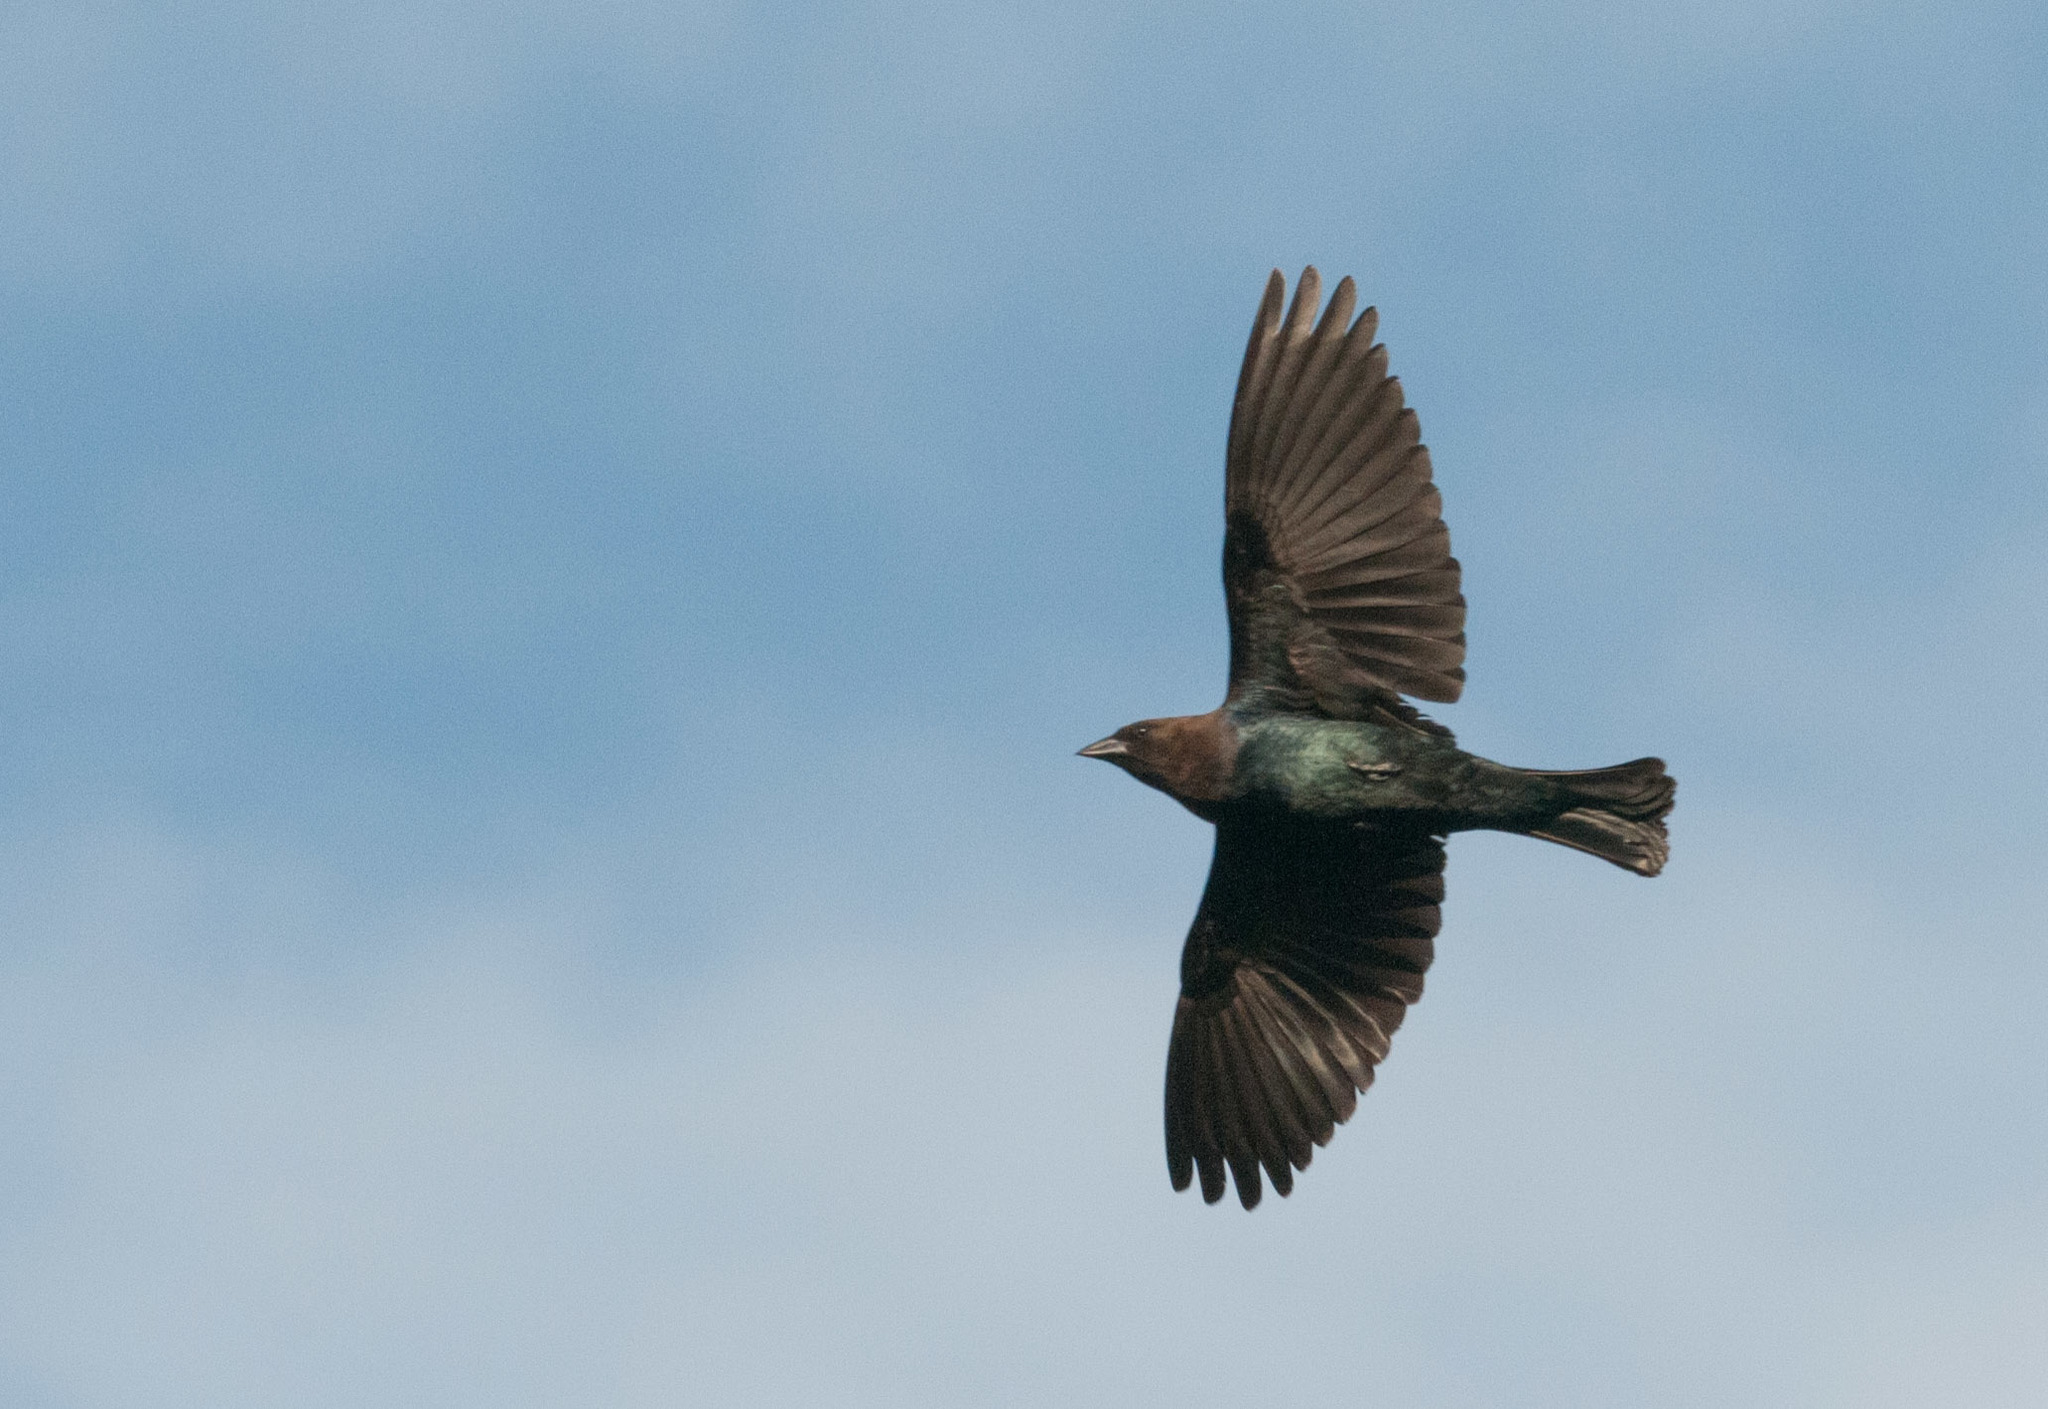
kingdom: Animalia
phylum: Chordata
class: Aves
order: Passeriformes
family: Icteridae
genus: Molothrus
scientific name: Molothrus ater
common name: Brown-headed cowbird
